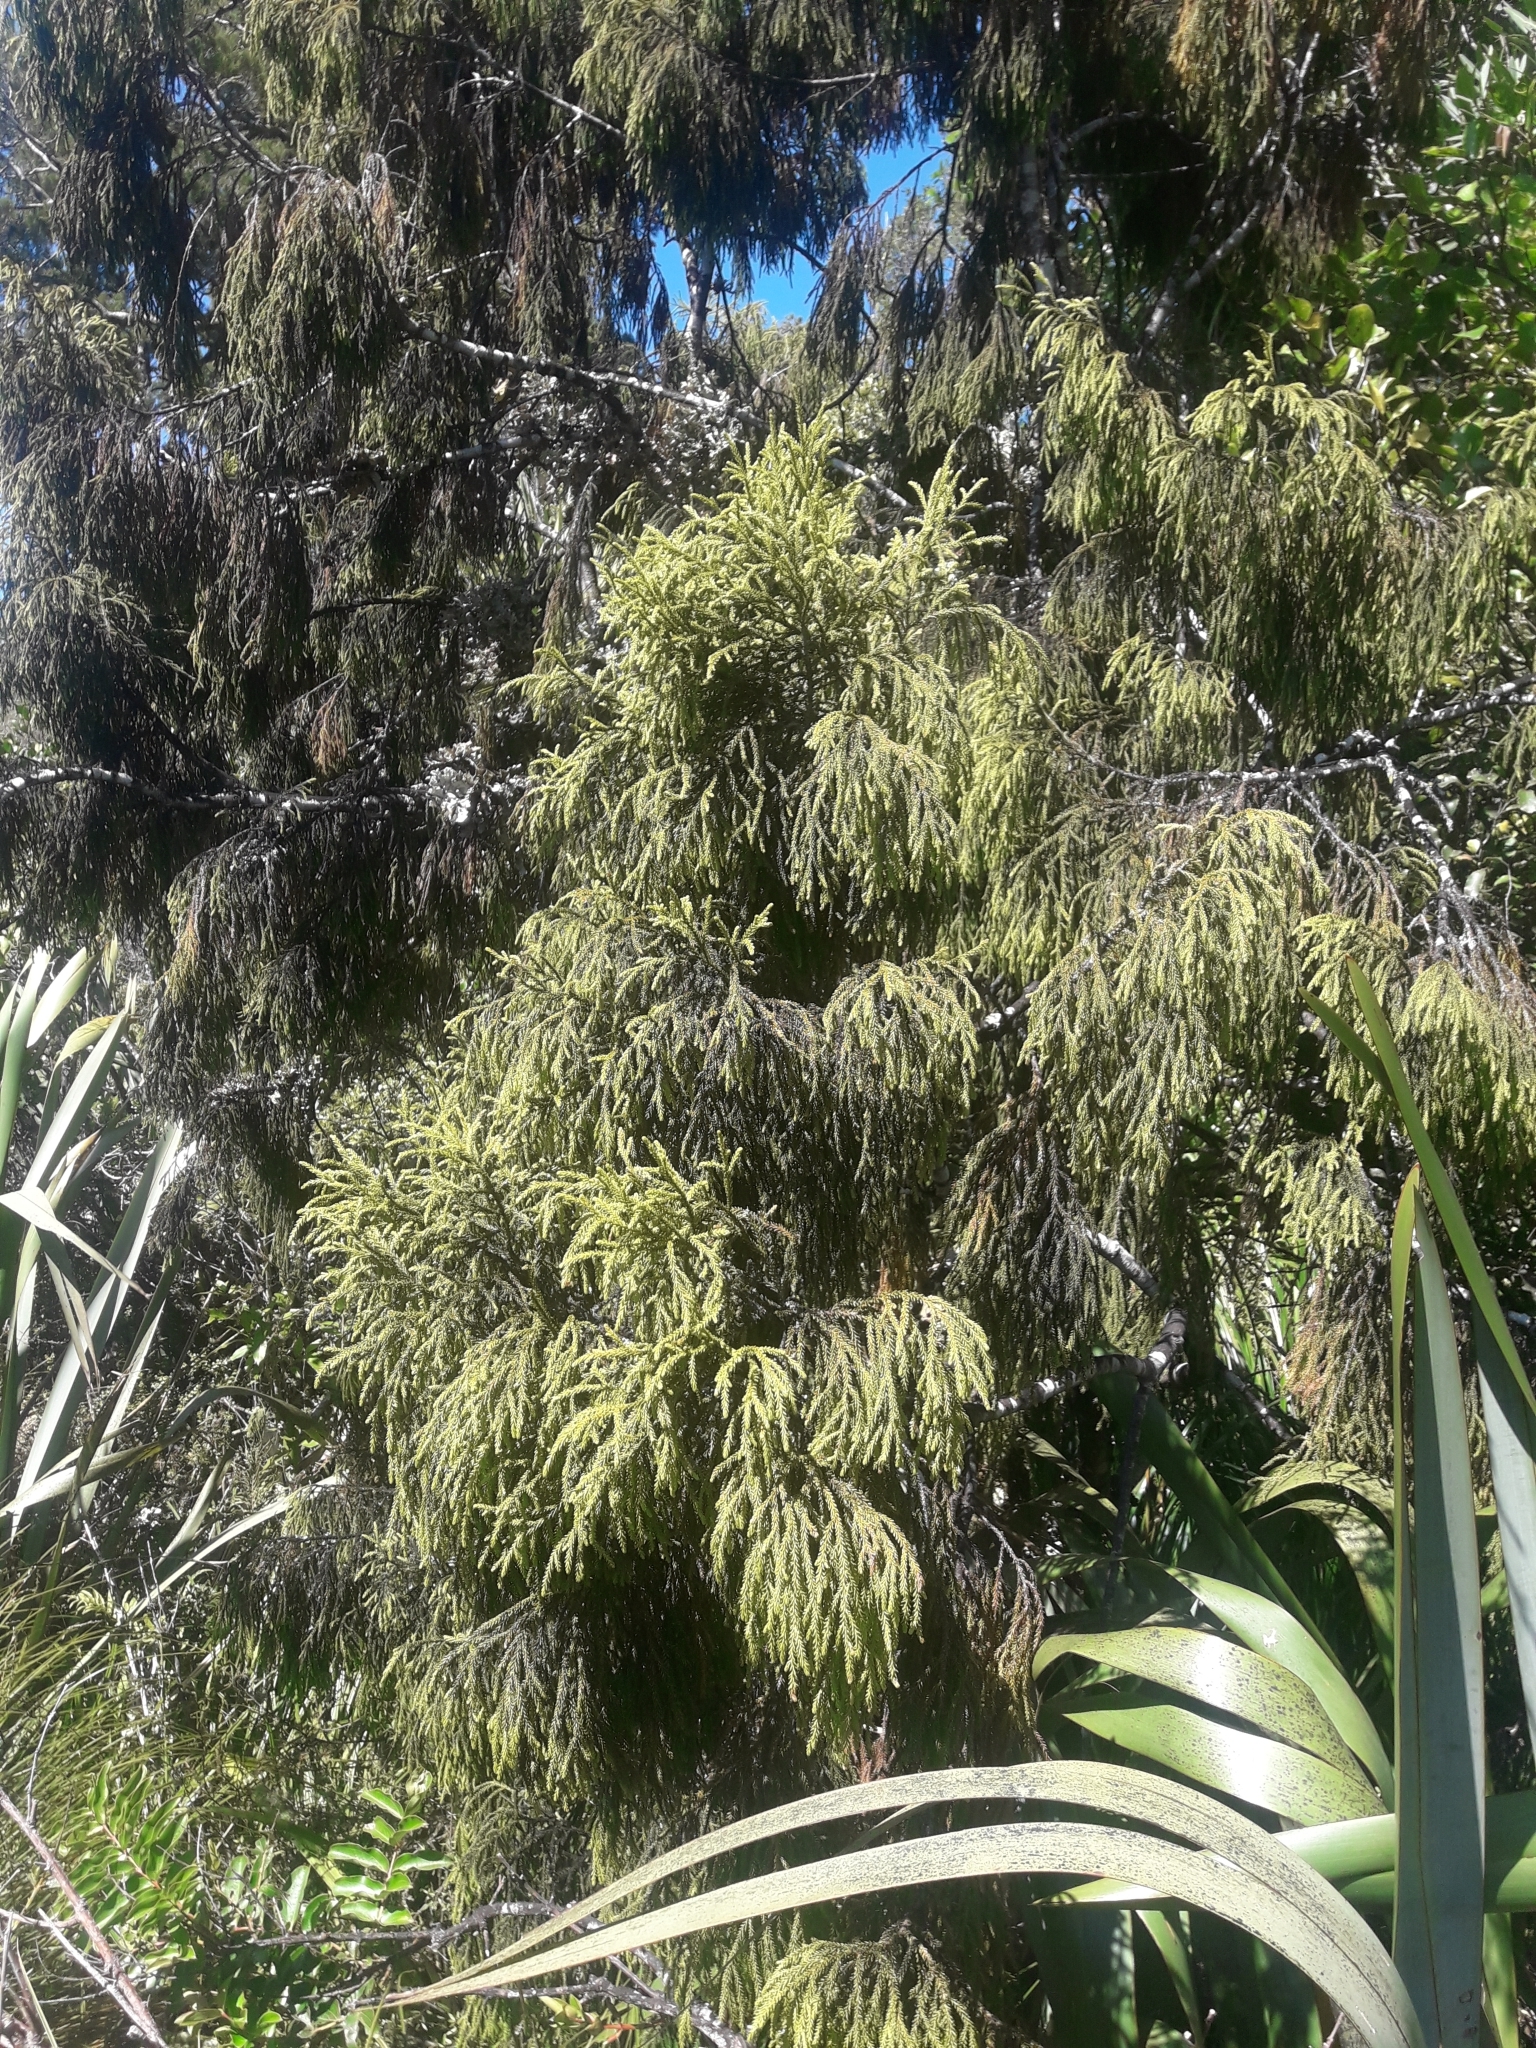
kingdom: Plantae
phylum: Tracheophyta
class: Pinopsida
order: Pinales
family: Podocarpaceae
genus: Dacrydium
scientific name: Dacrydium cupressinum
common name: Red pine
